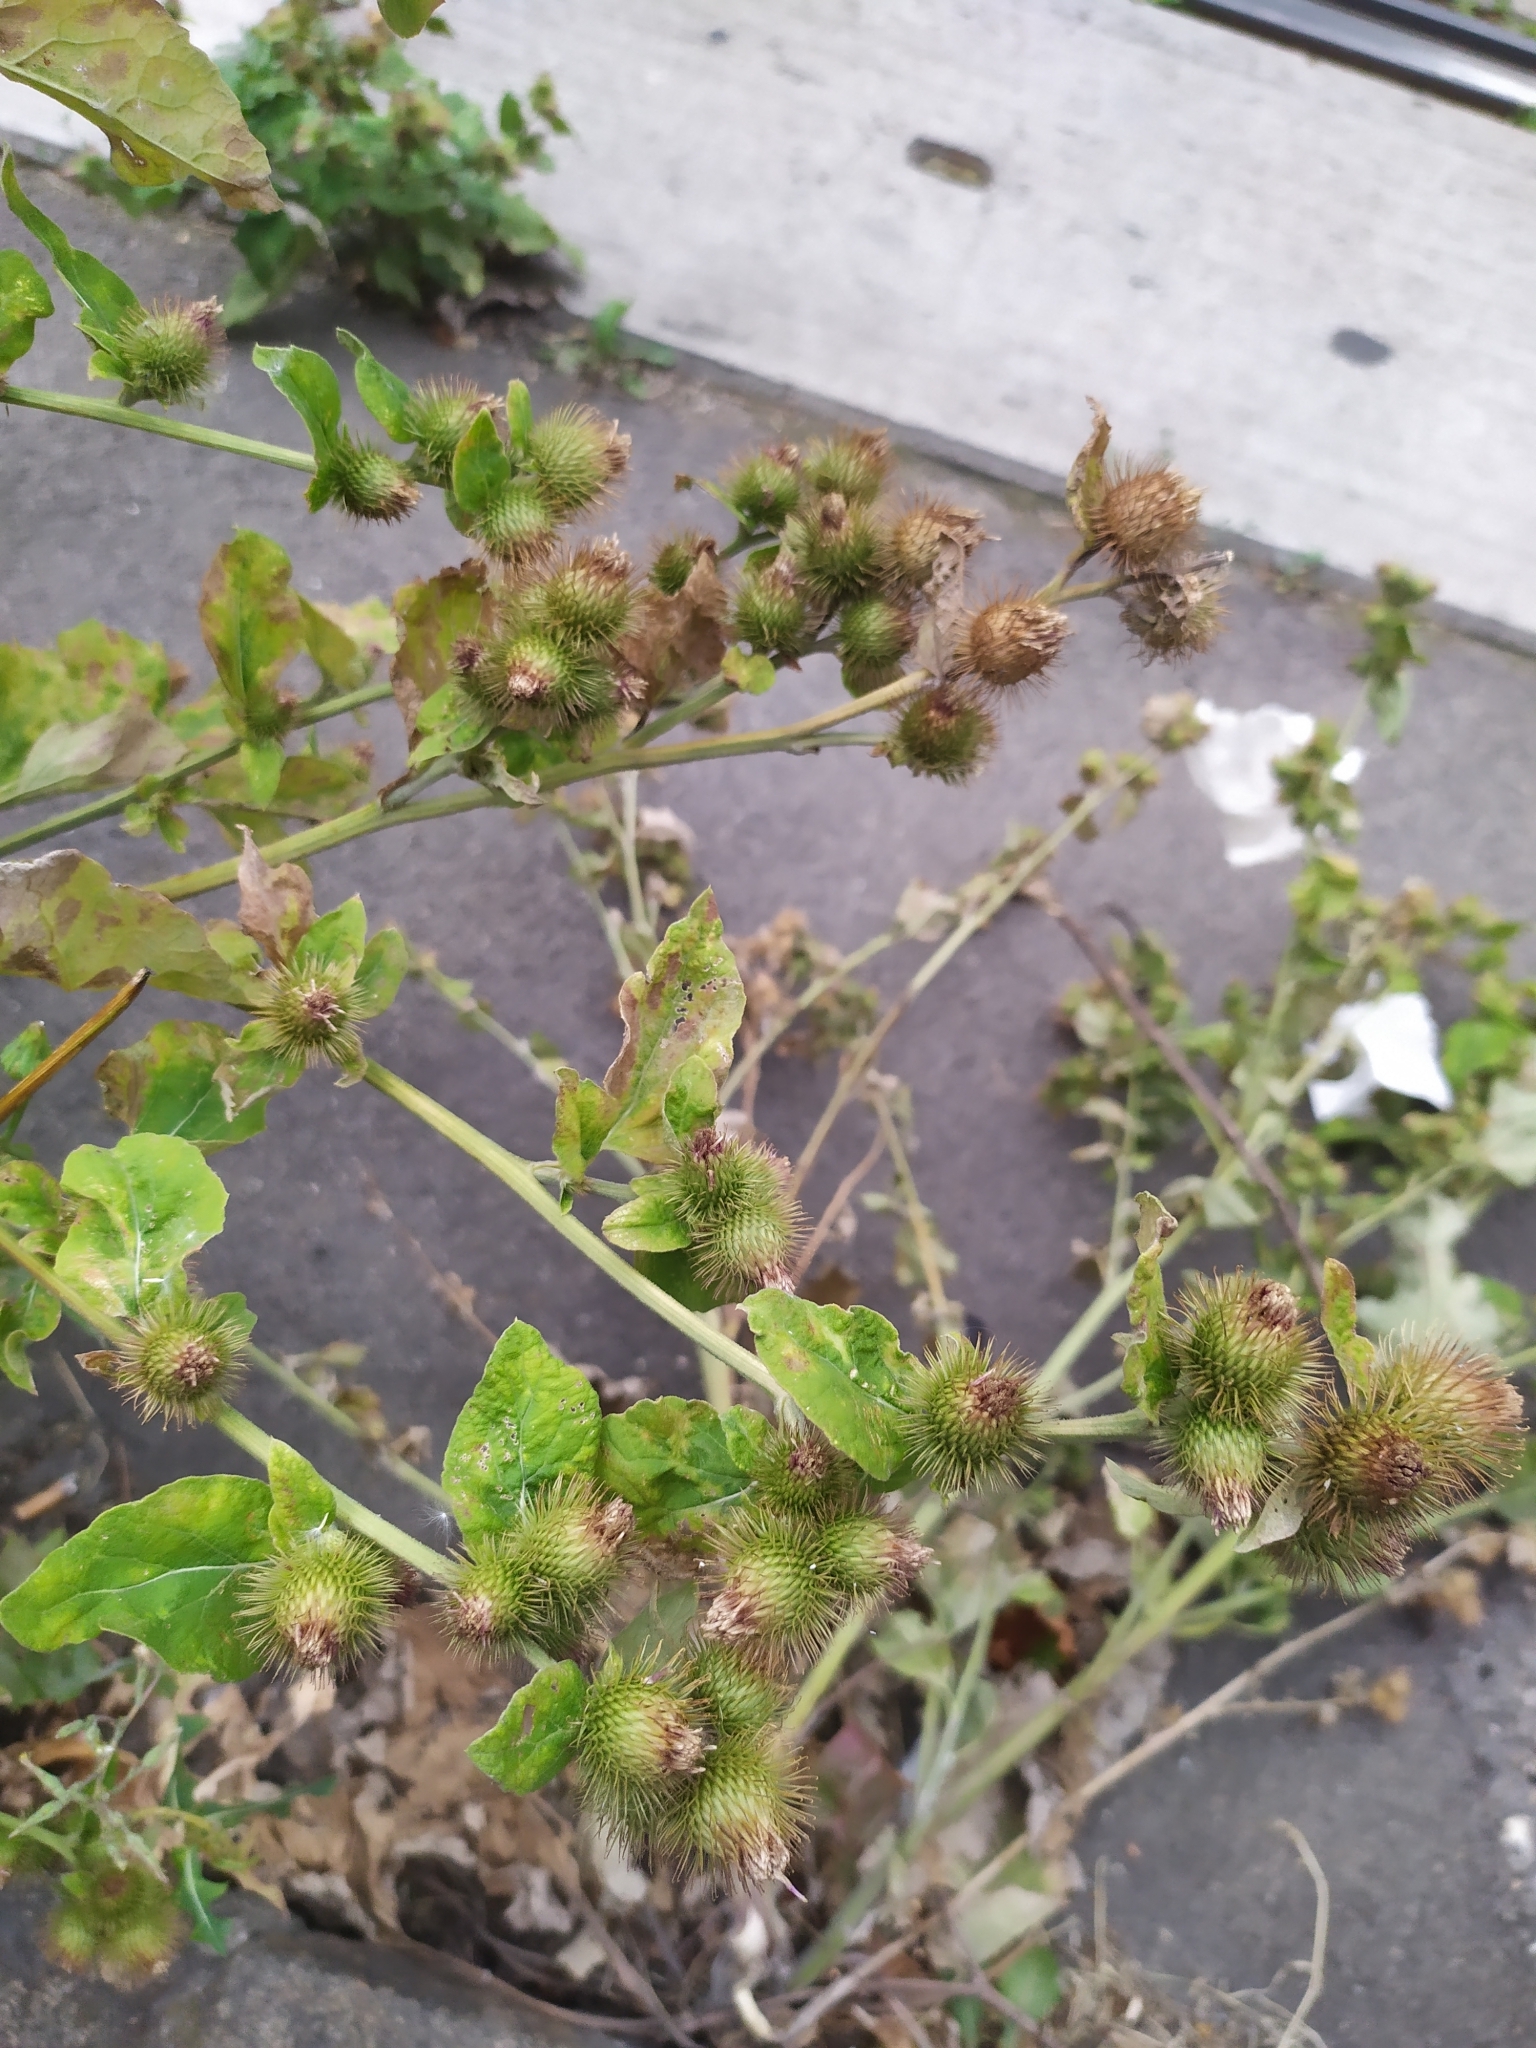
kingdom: Plantae
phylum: Tracheophyta
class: Magnoliopsida
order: Asterales
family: Asteraceae
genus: Arctium
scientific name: Arctium minus
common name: Lesser burdock
